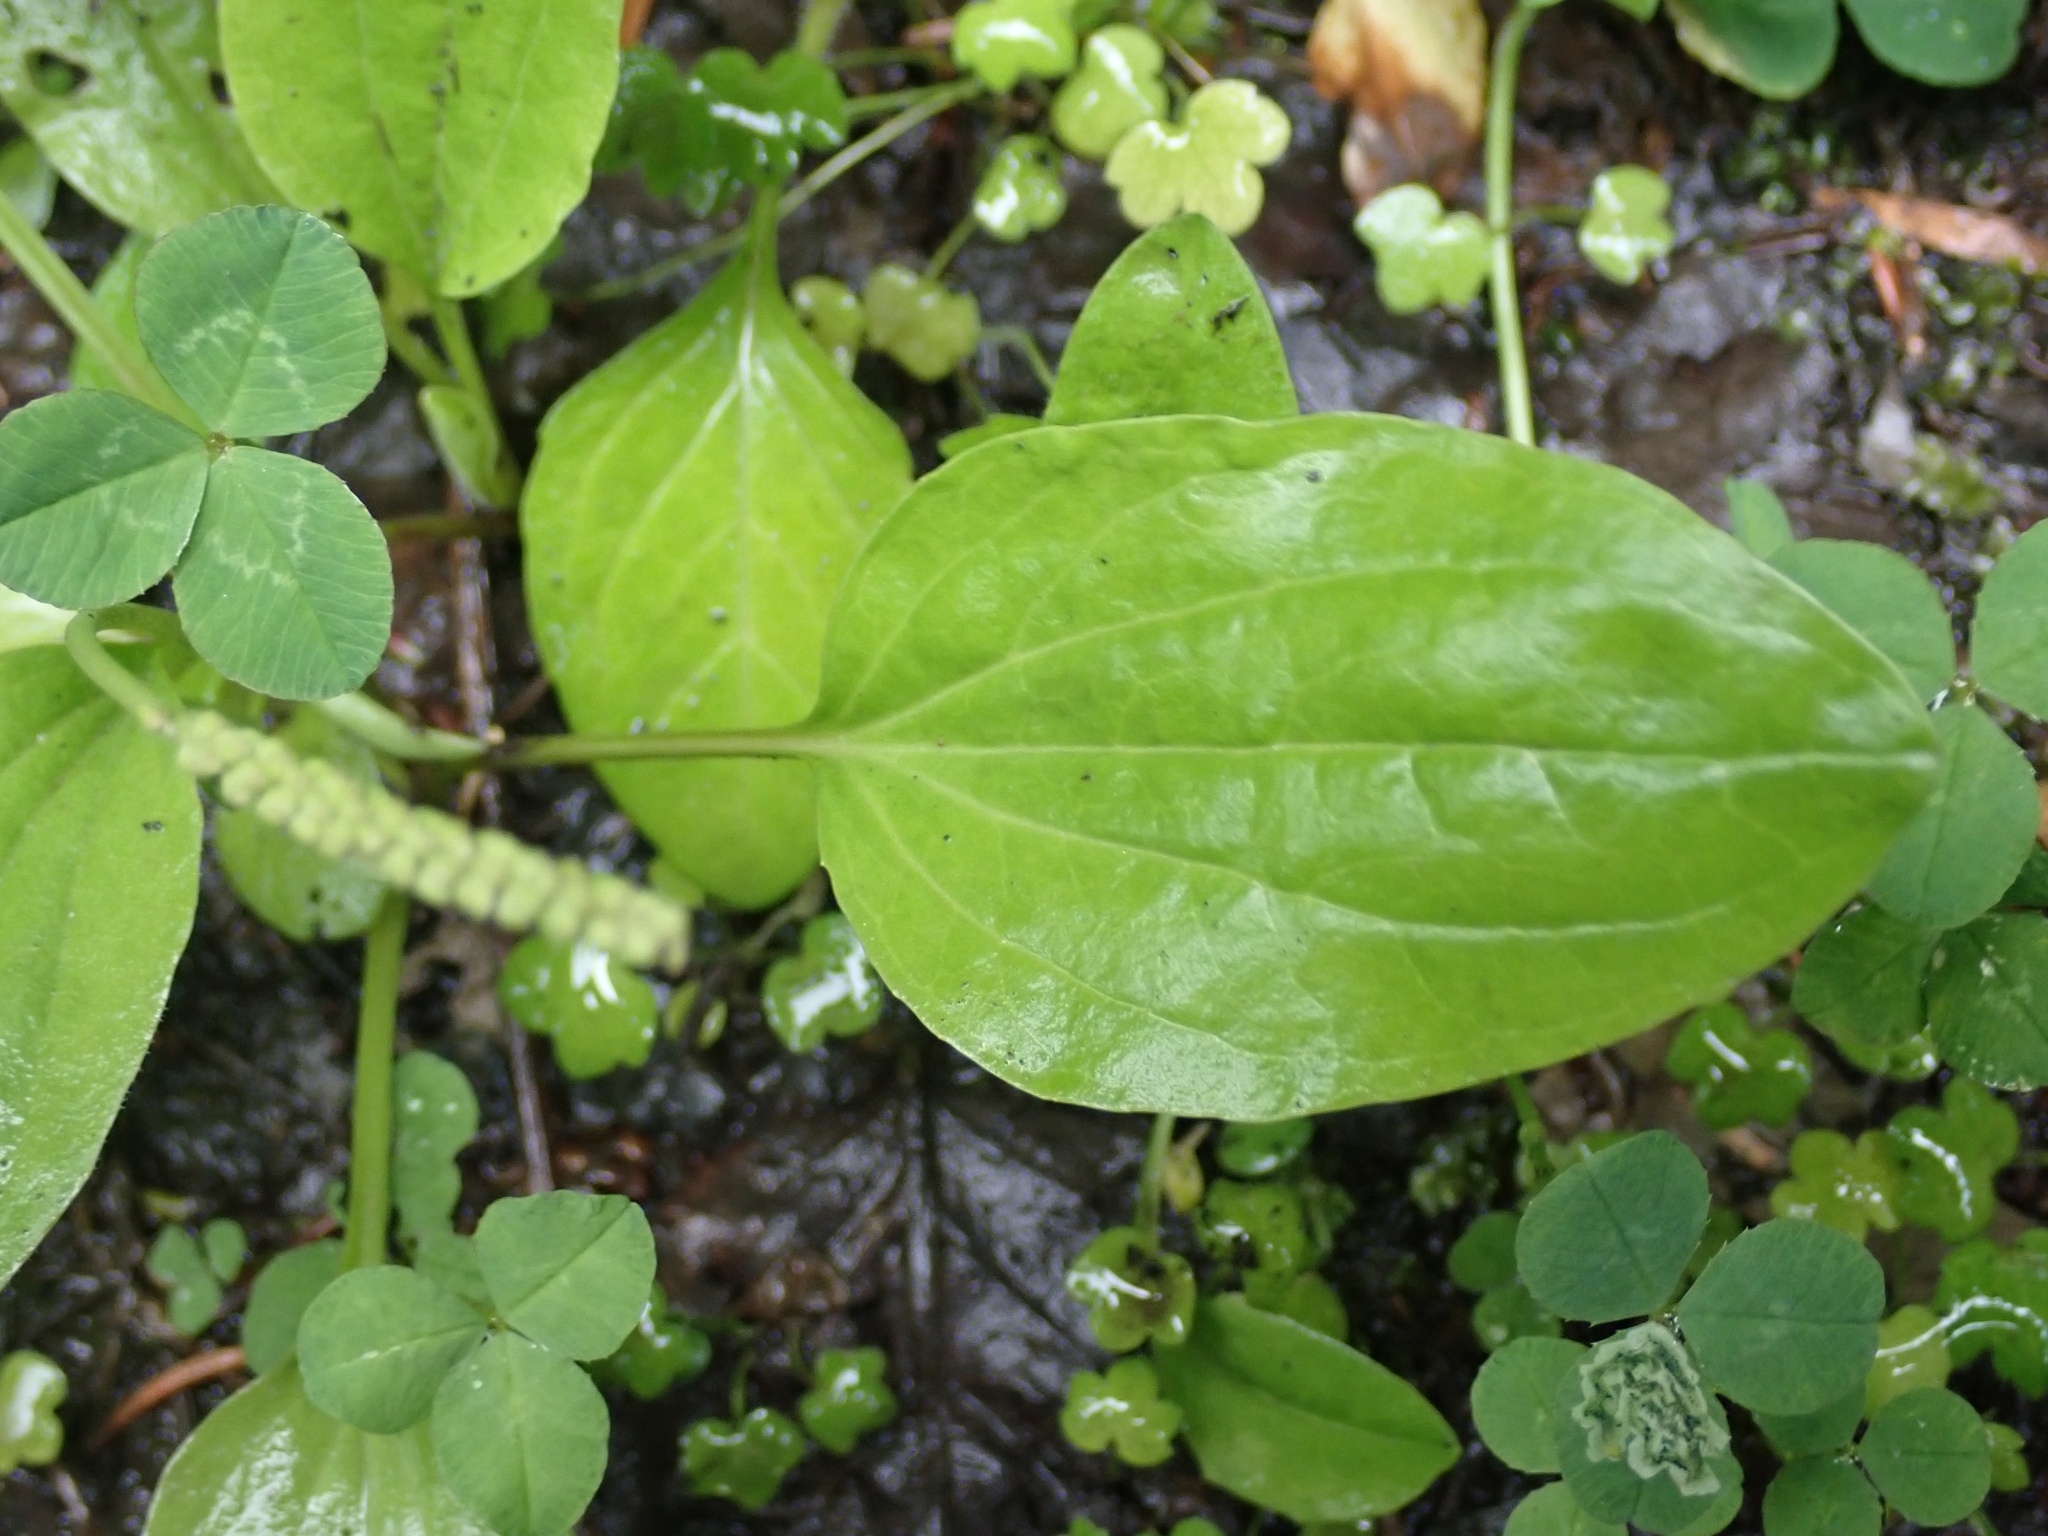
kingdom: Plantae
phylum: Tracheophyta
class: Magnoliopsida
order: Lamiales
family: Lamiaceae
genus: Prunella
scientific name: Prunella vulgaris
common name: Heal-all
